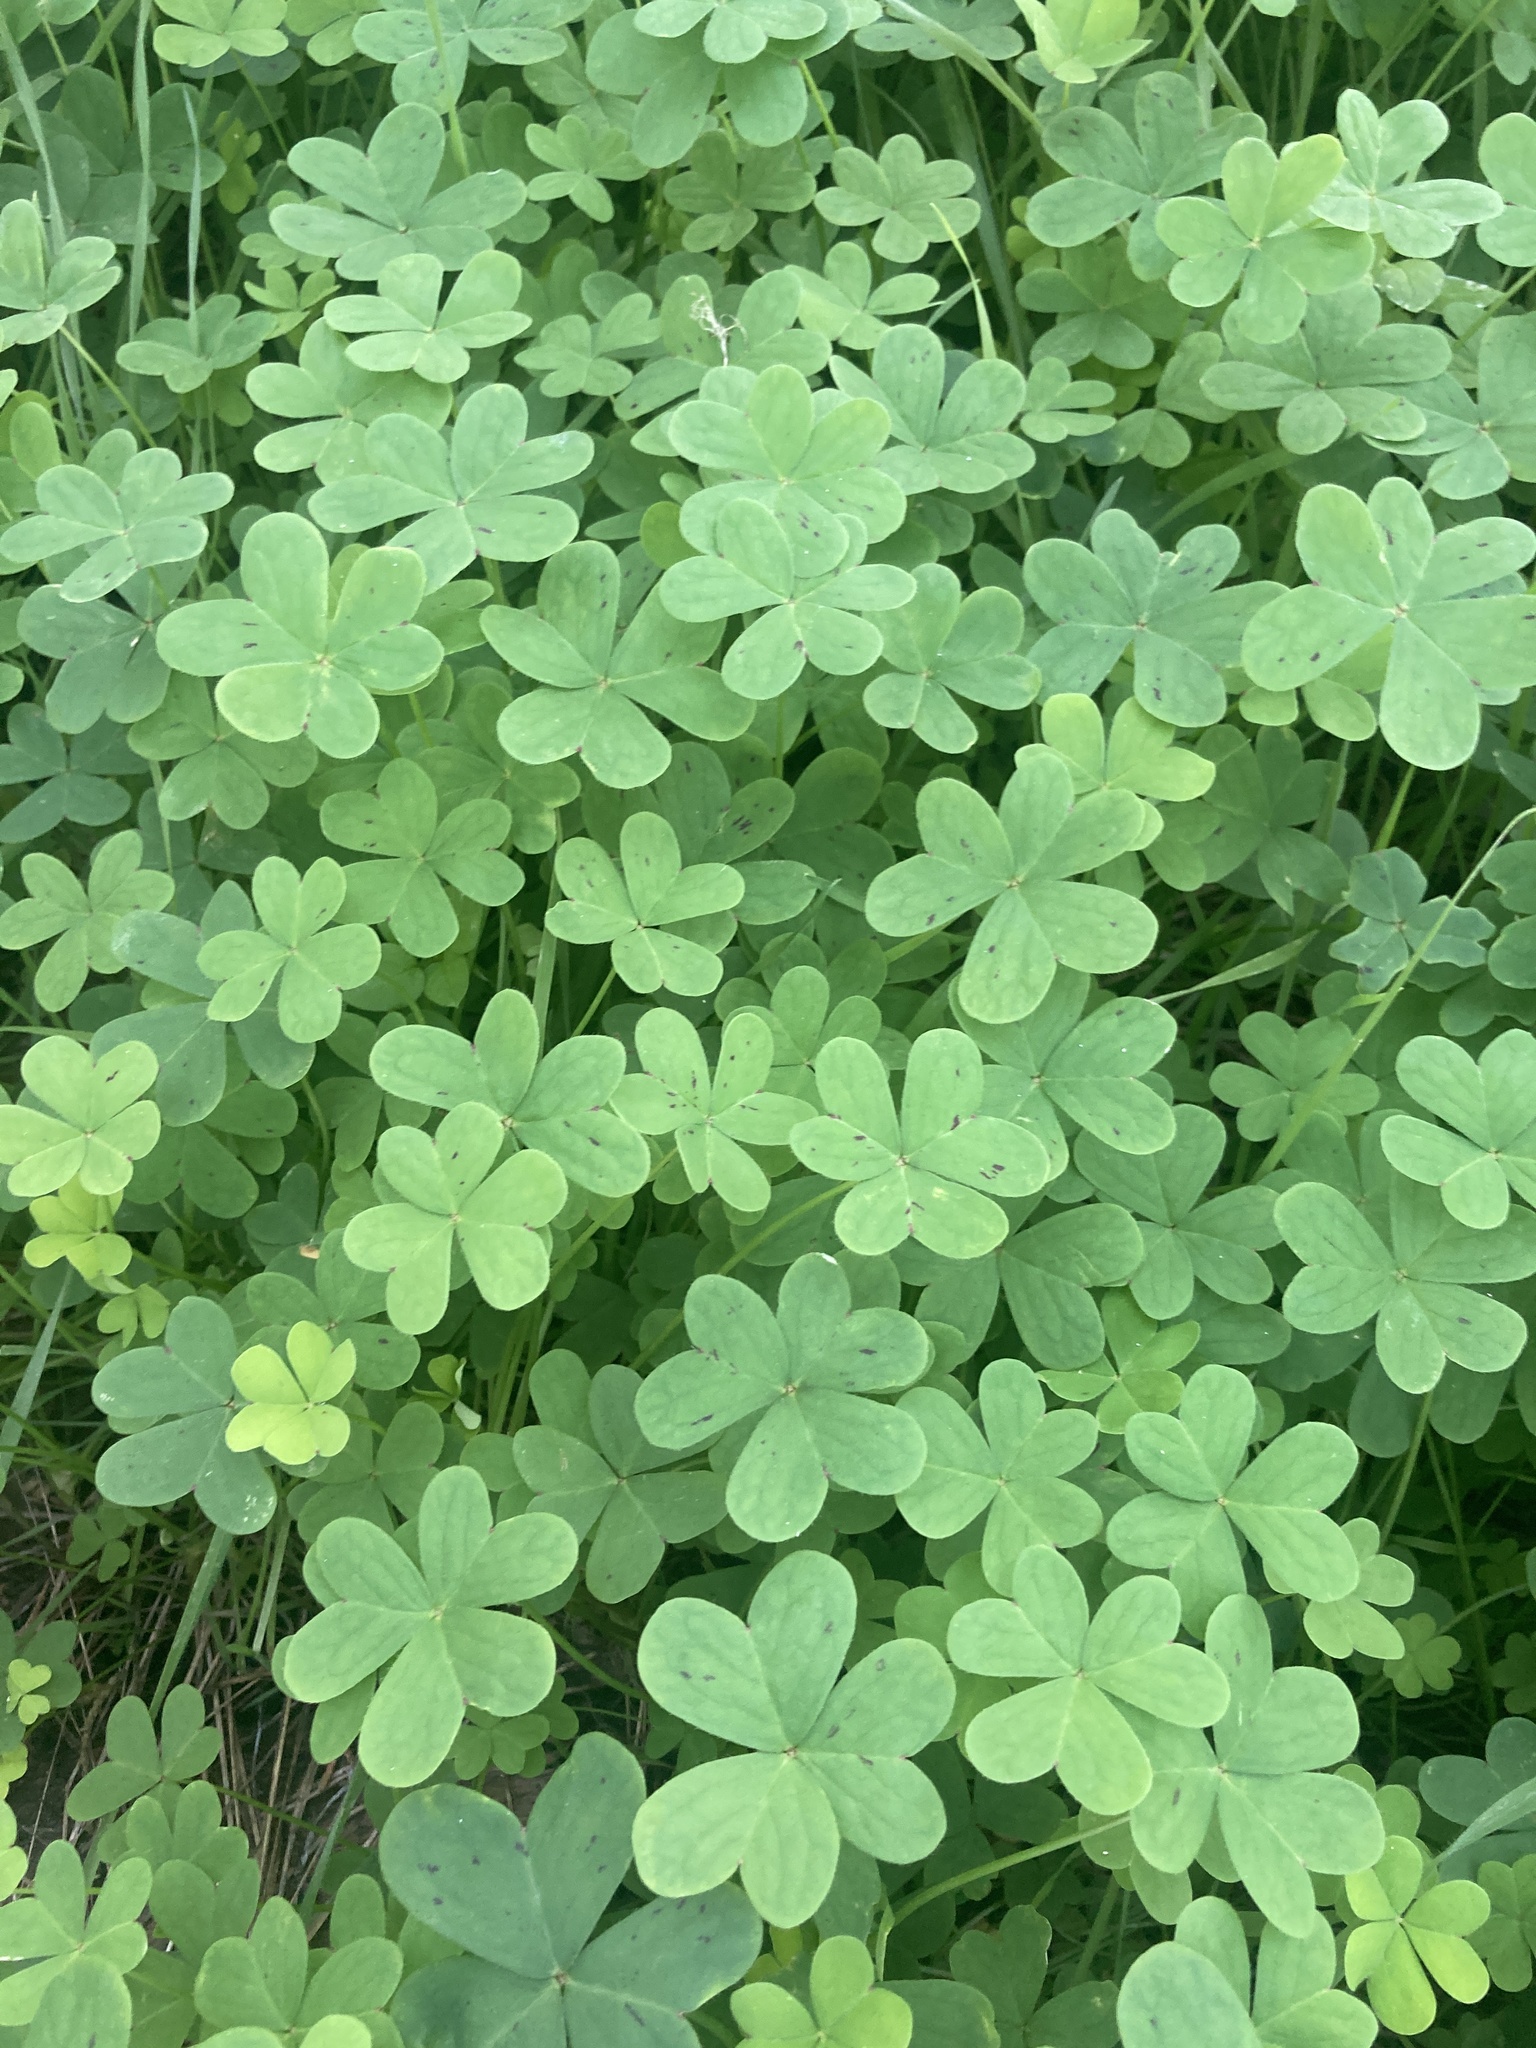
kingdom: Plantae
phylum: Tracheophyta
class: Magnoliopsida
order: Oxalidales
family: Oxalidaceae
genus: Oxalis
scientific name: Oxalis pes-caprae
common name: Bermuda-buttercup
